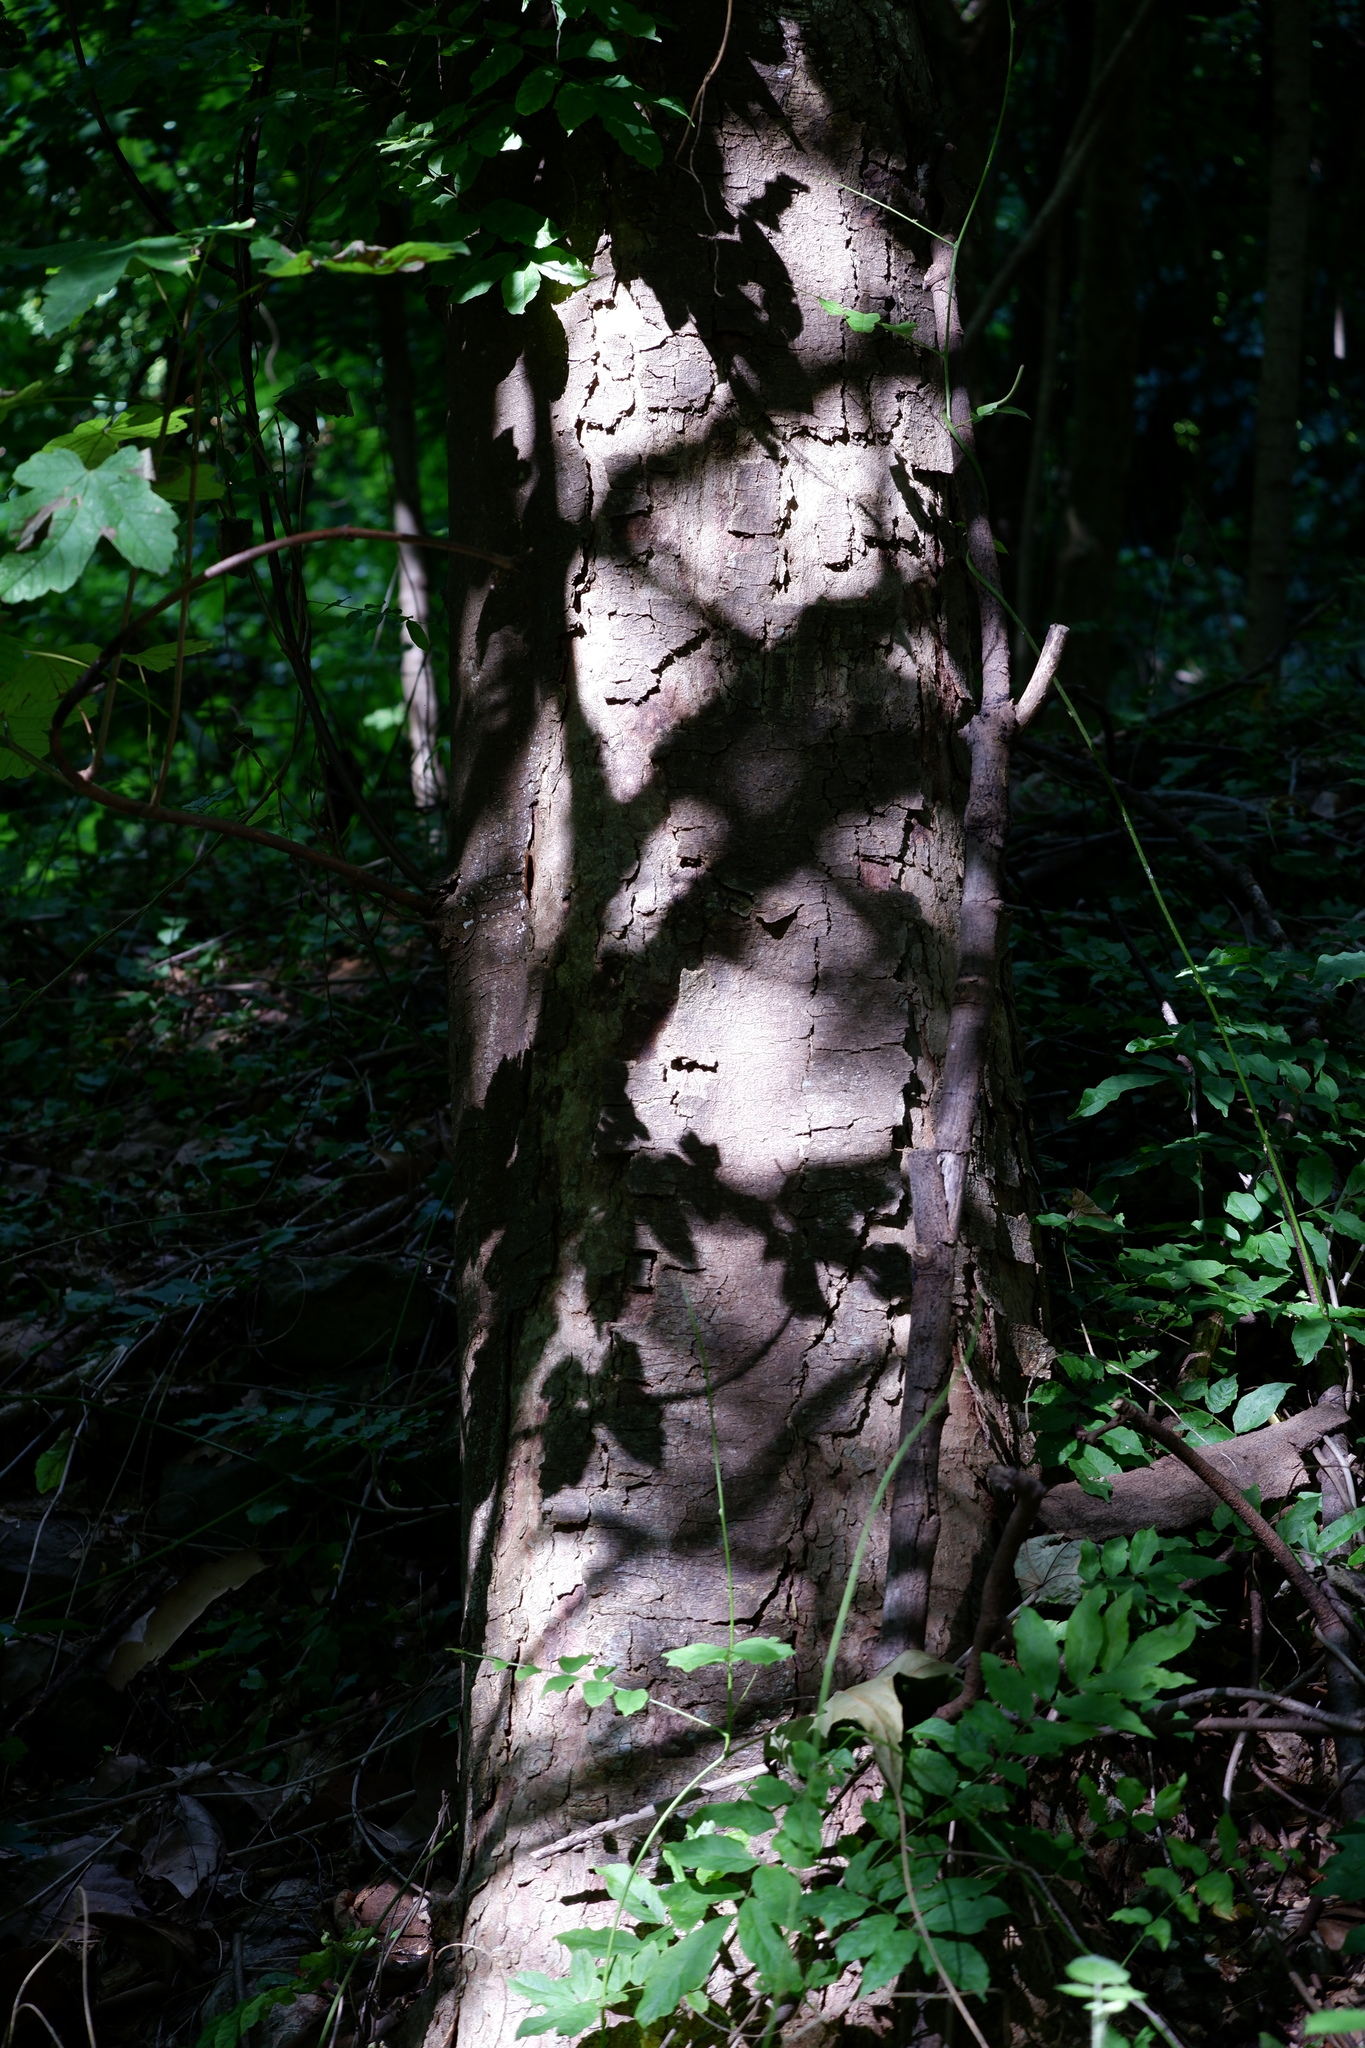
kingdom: Plantae
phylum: Tracheophyta
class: Magnoliopsida
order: Sapindales
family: Sapindaceae
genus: Acer
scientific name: Acer pseudoplatanus
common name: Sycamore
